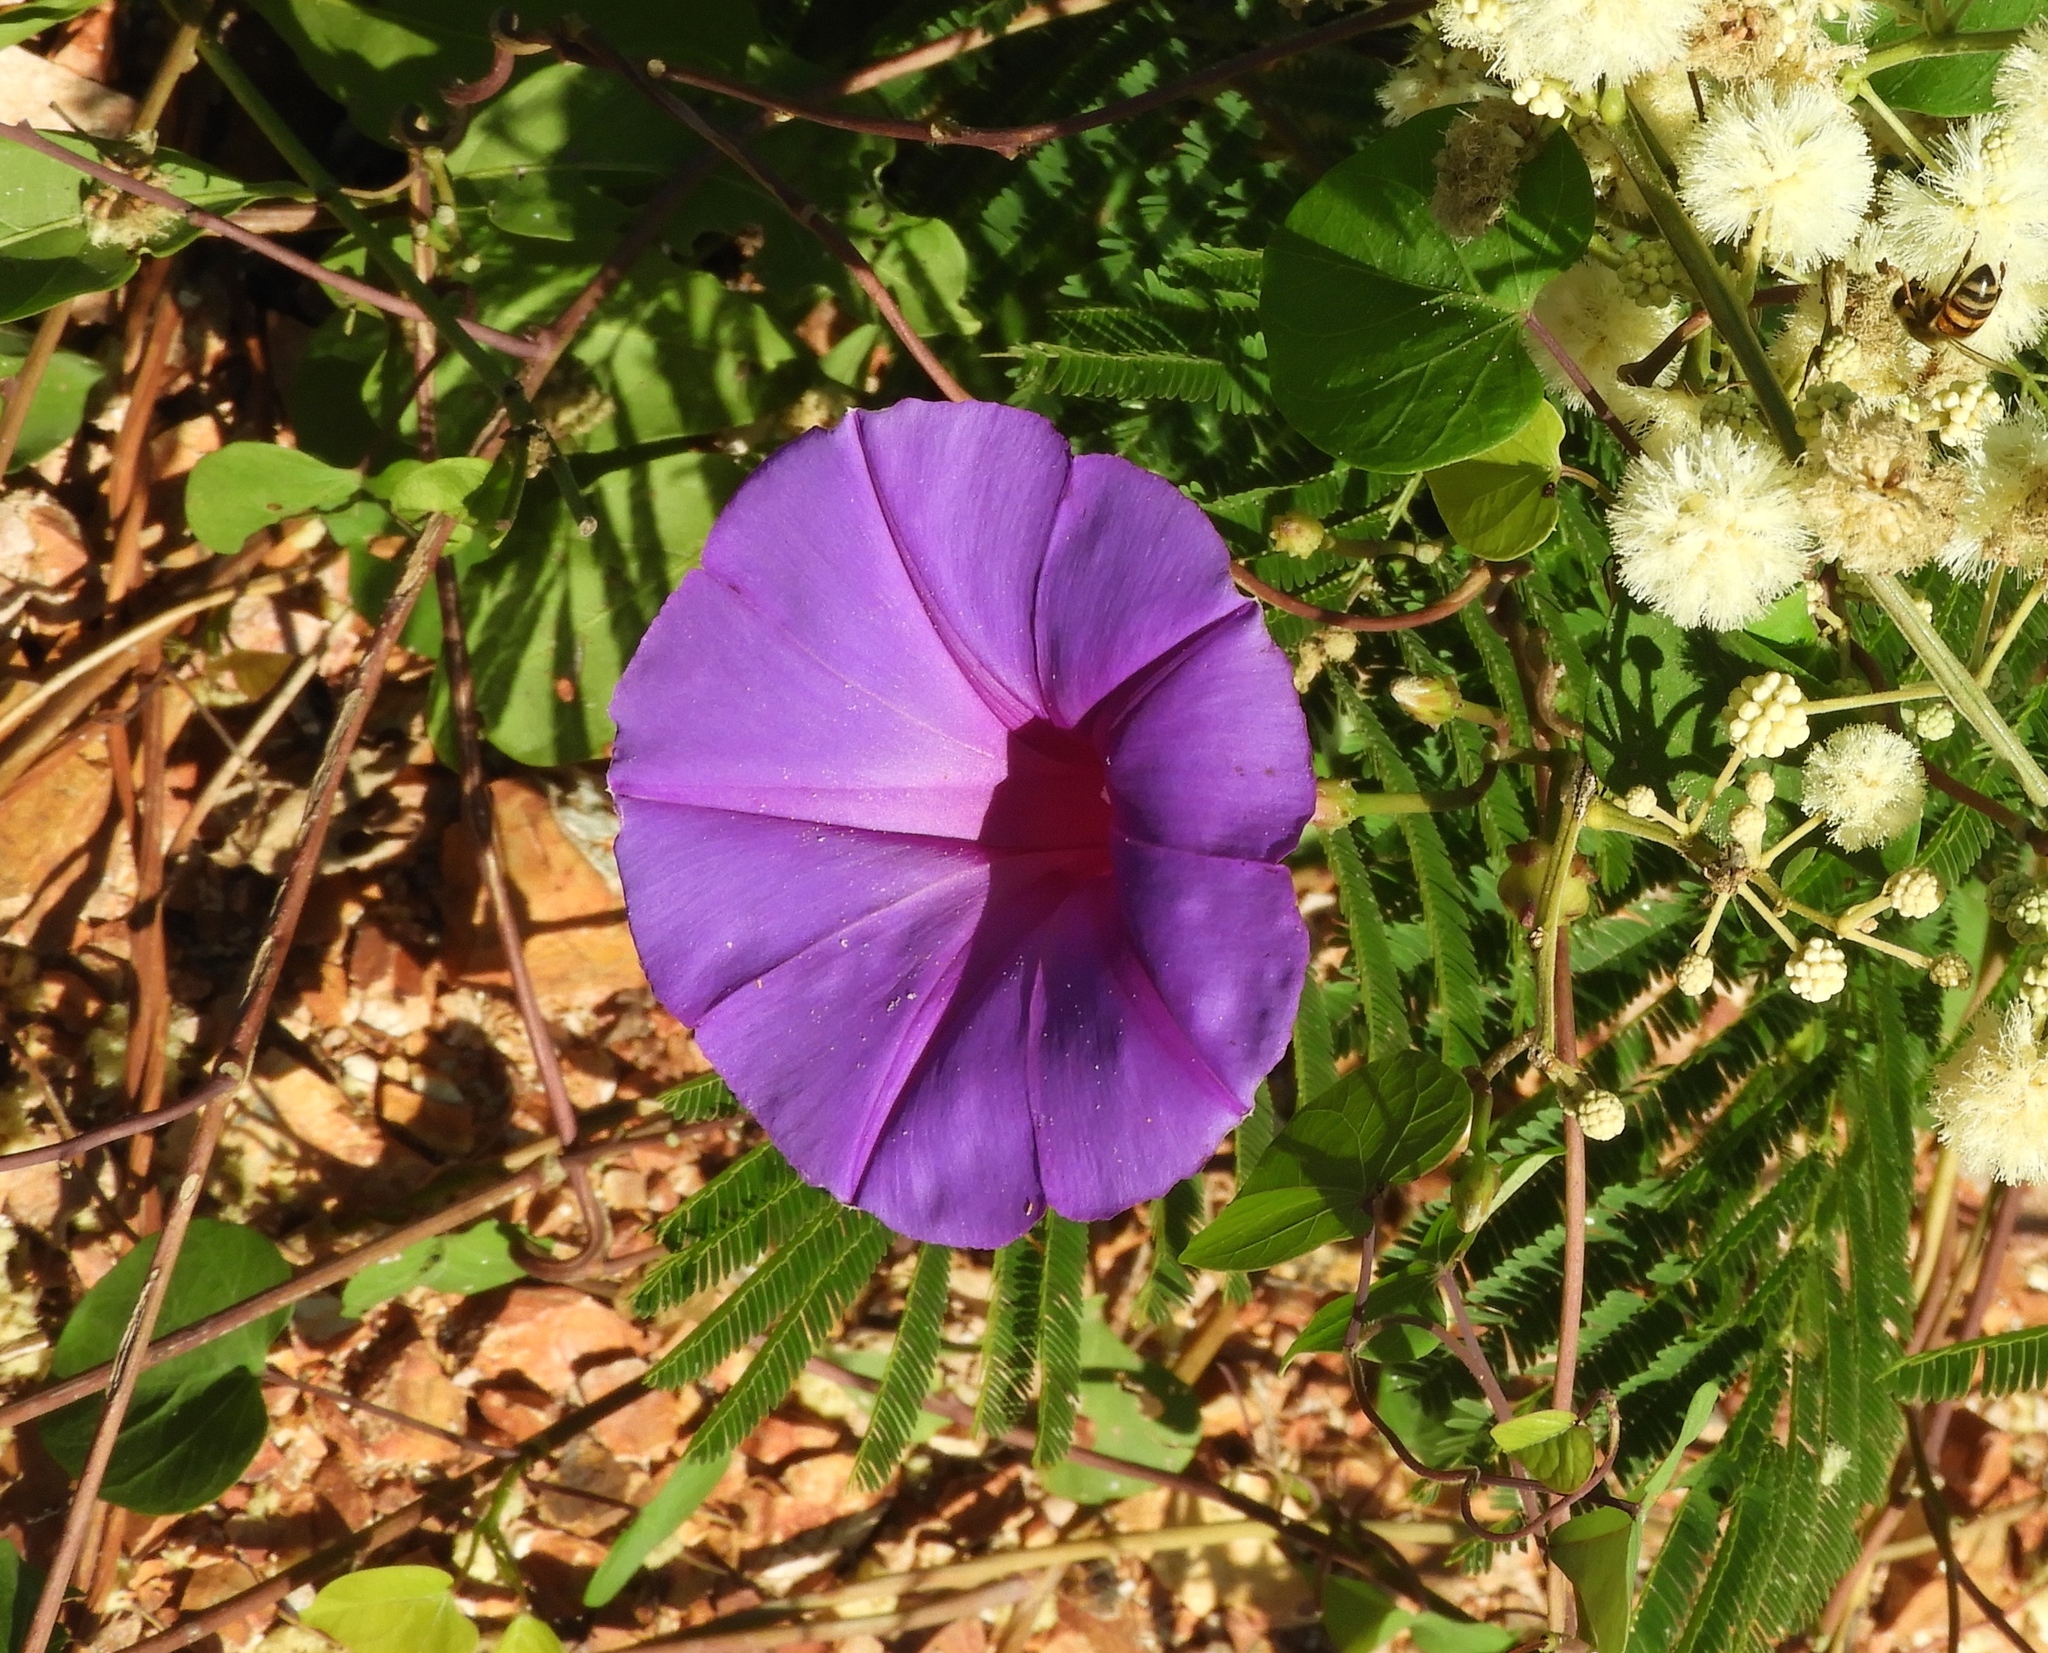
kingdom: Plantae
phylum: Tracheophyta
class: Magnoliopsida
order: Solanales
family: Convolvulaceae
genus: Ipomoea
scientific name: Ipomoea pedicellaris
